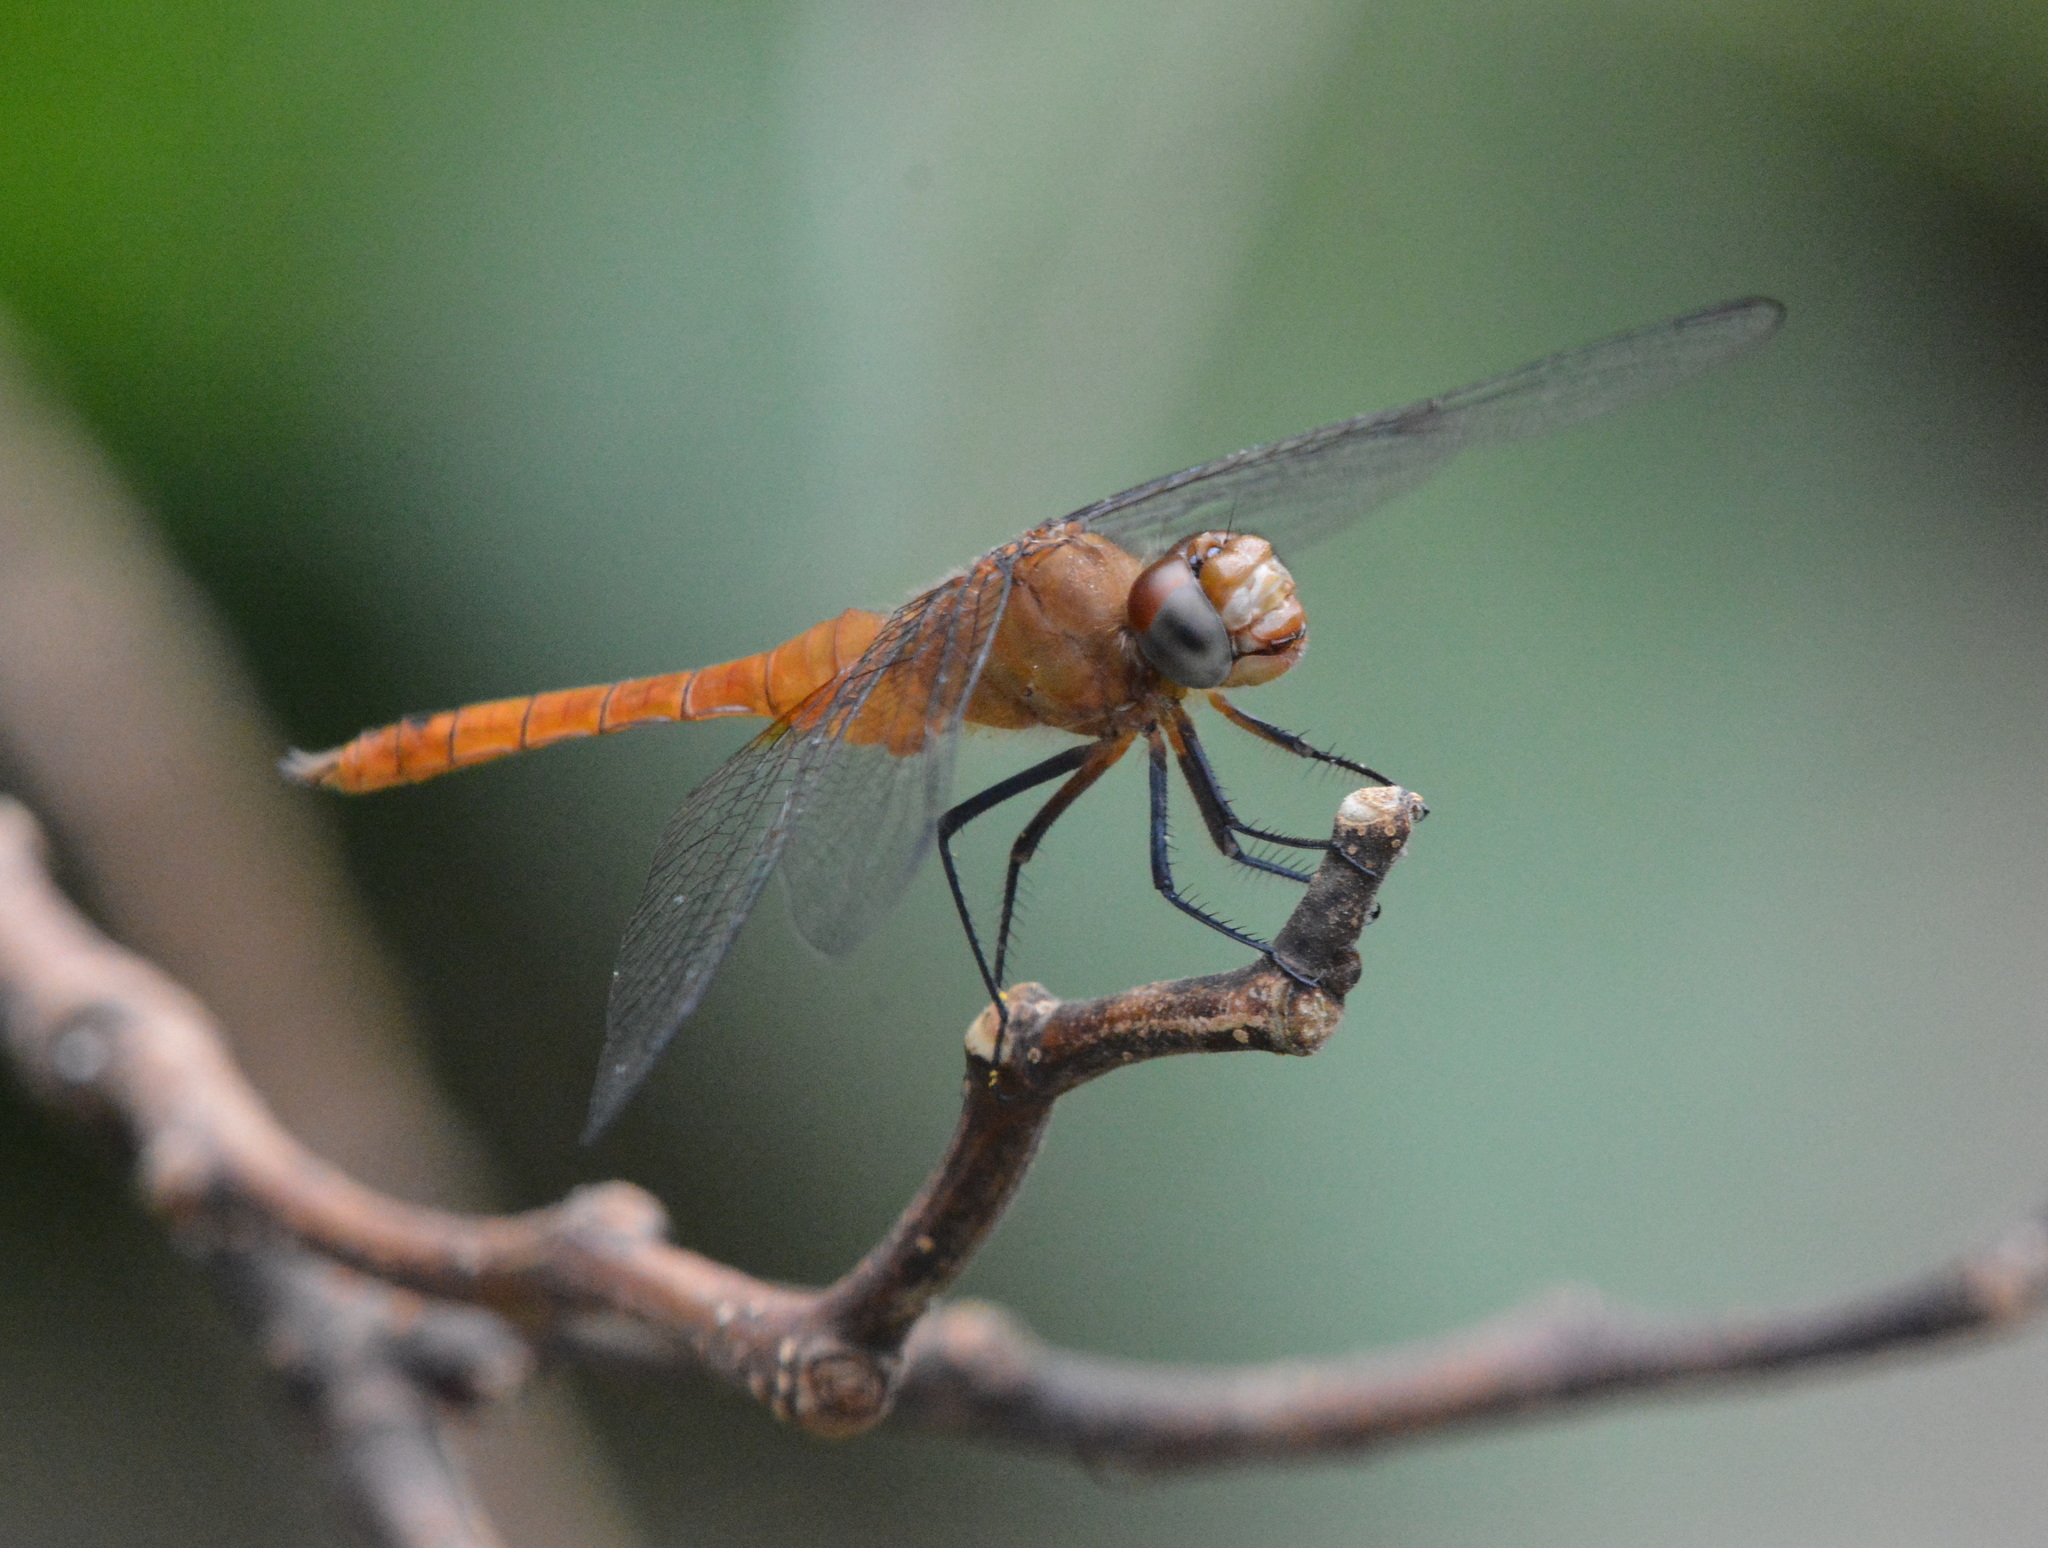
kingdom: Animalia
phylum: Arthropoda
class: Insecta
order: Odonata
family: Libellulidae
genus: Brachymesia
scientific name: Brachymesia furcata
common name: Red-taled pennant
